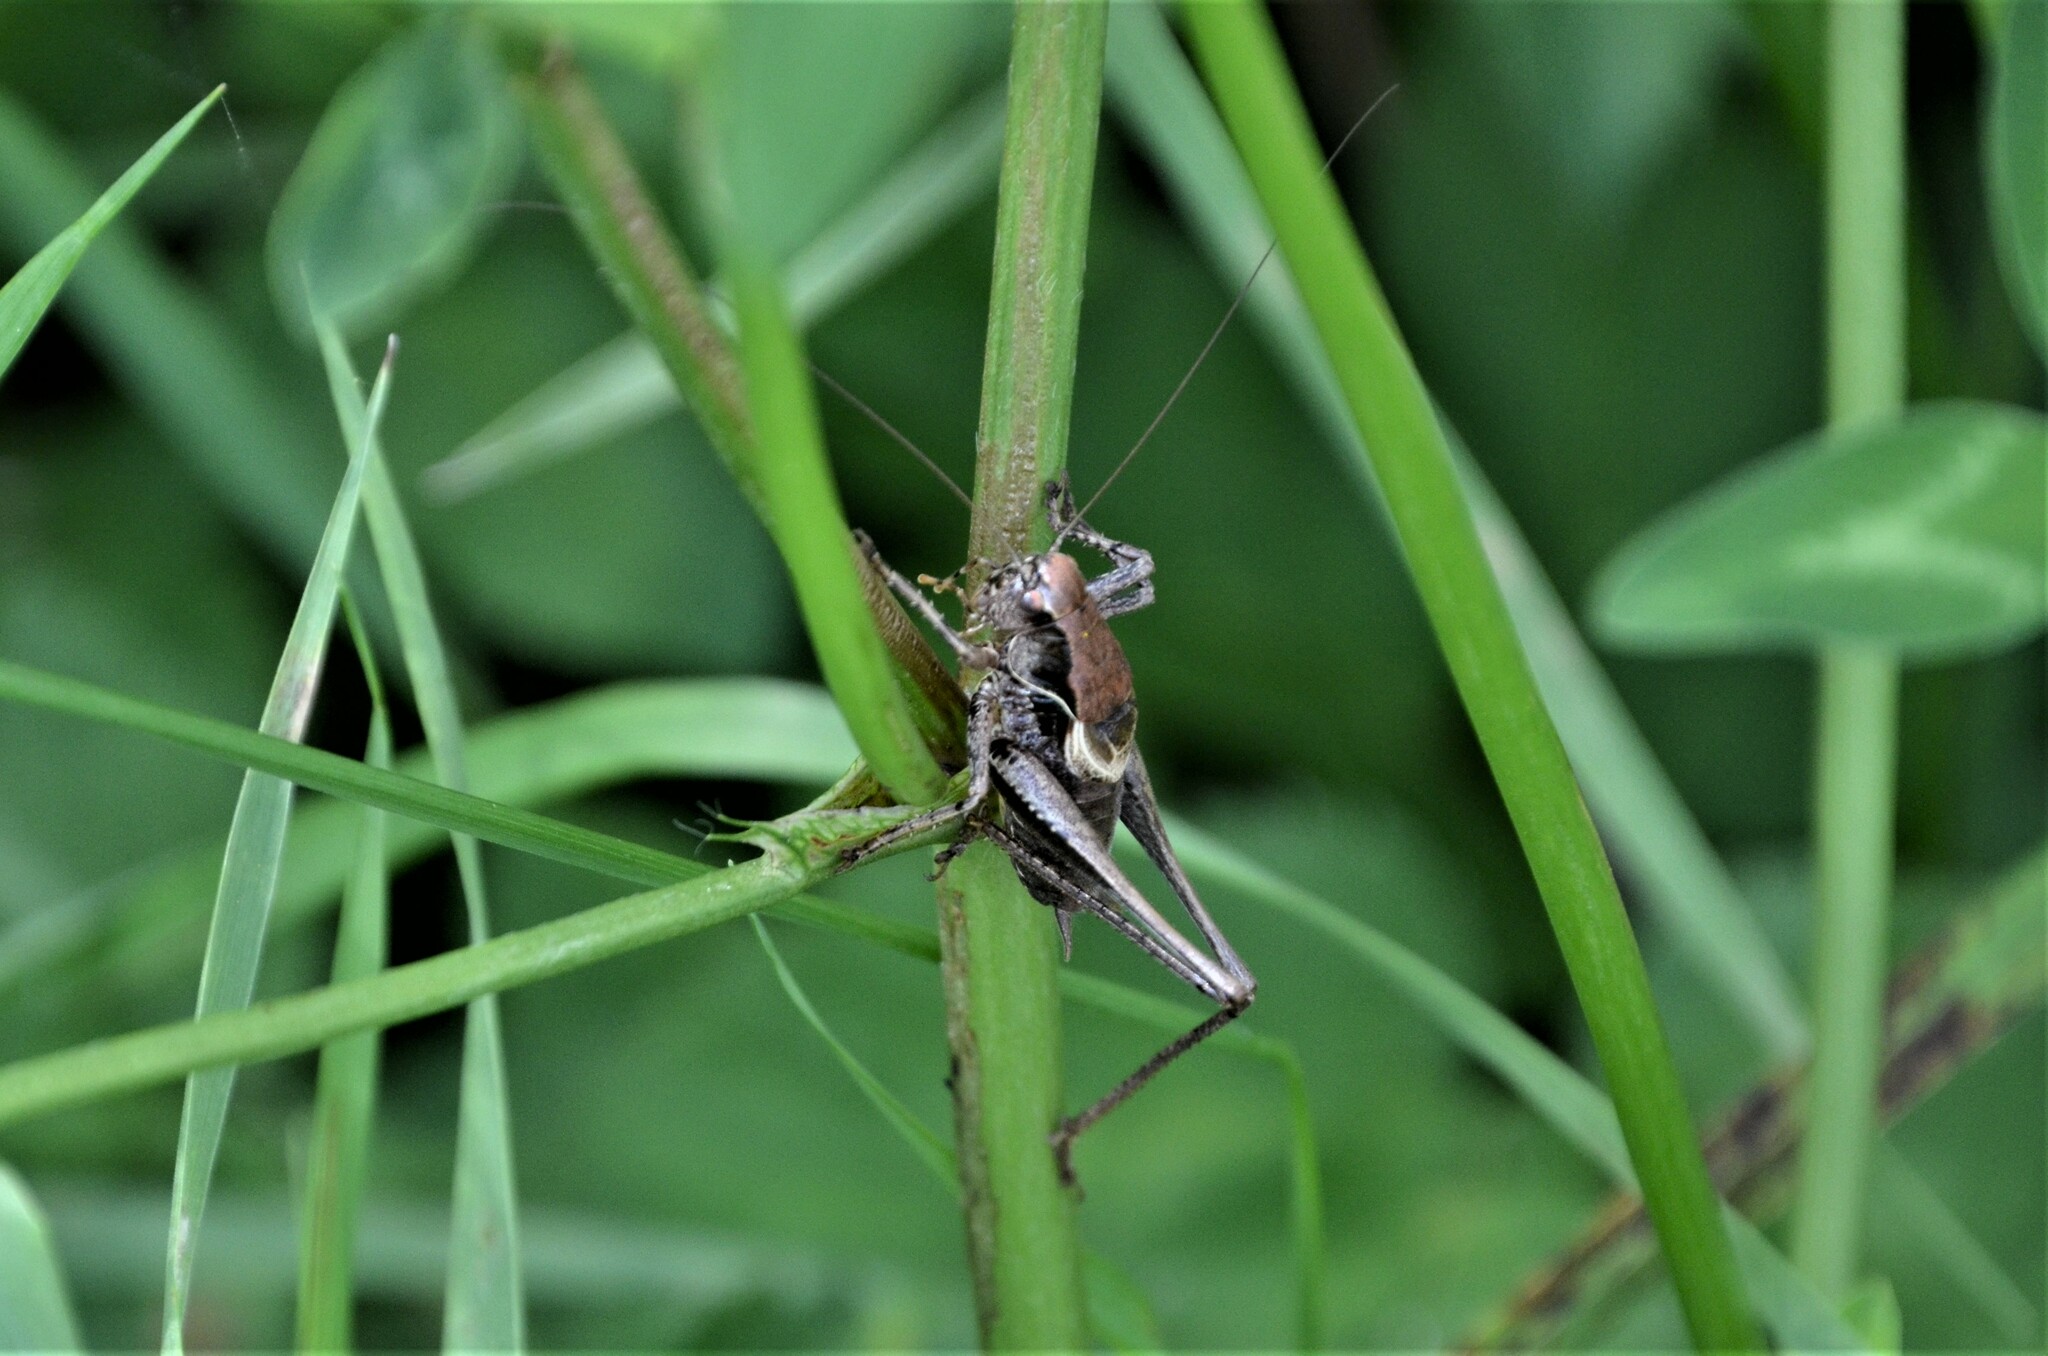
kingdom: Animalia
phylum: Arthropoda
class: Insecta
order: Orthoptera
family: Tettigoniidae
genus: Pholidoptera
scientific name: Pholidoptera griseoaptera
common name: Dark bush-cricket
